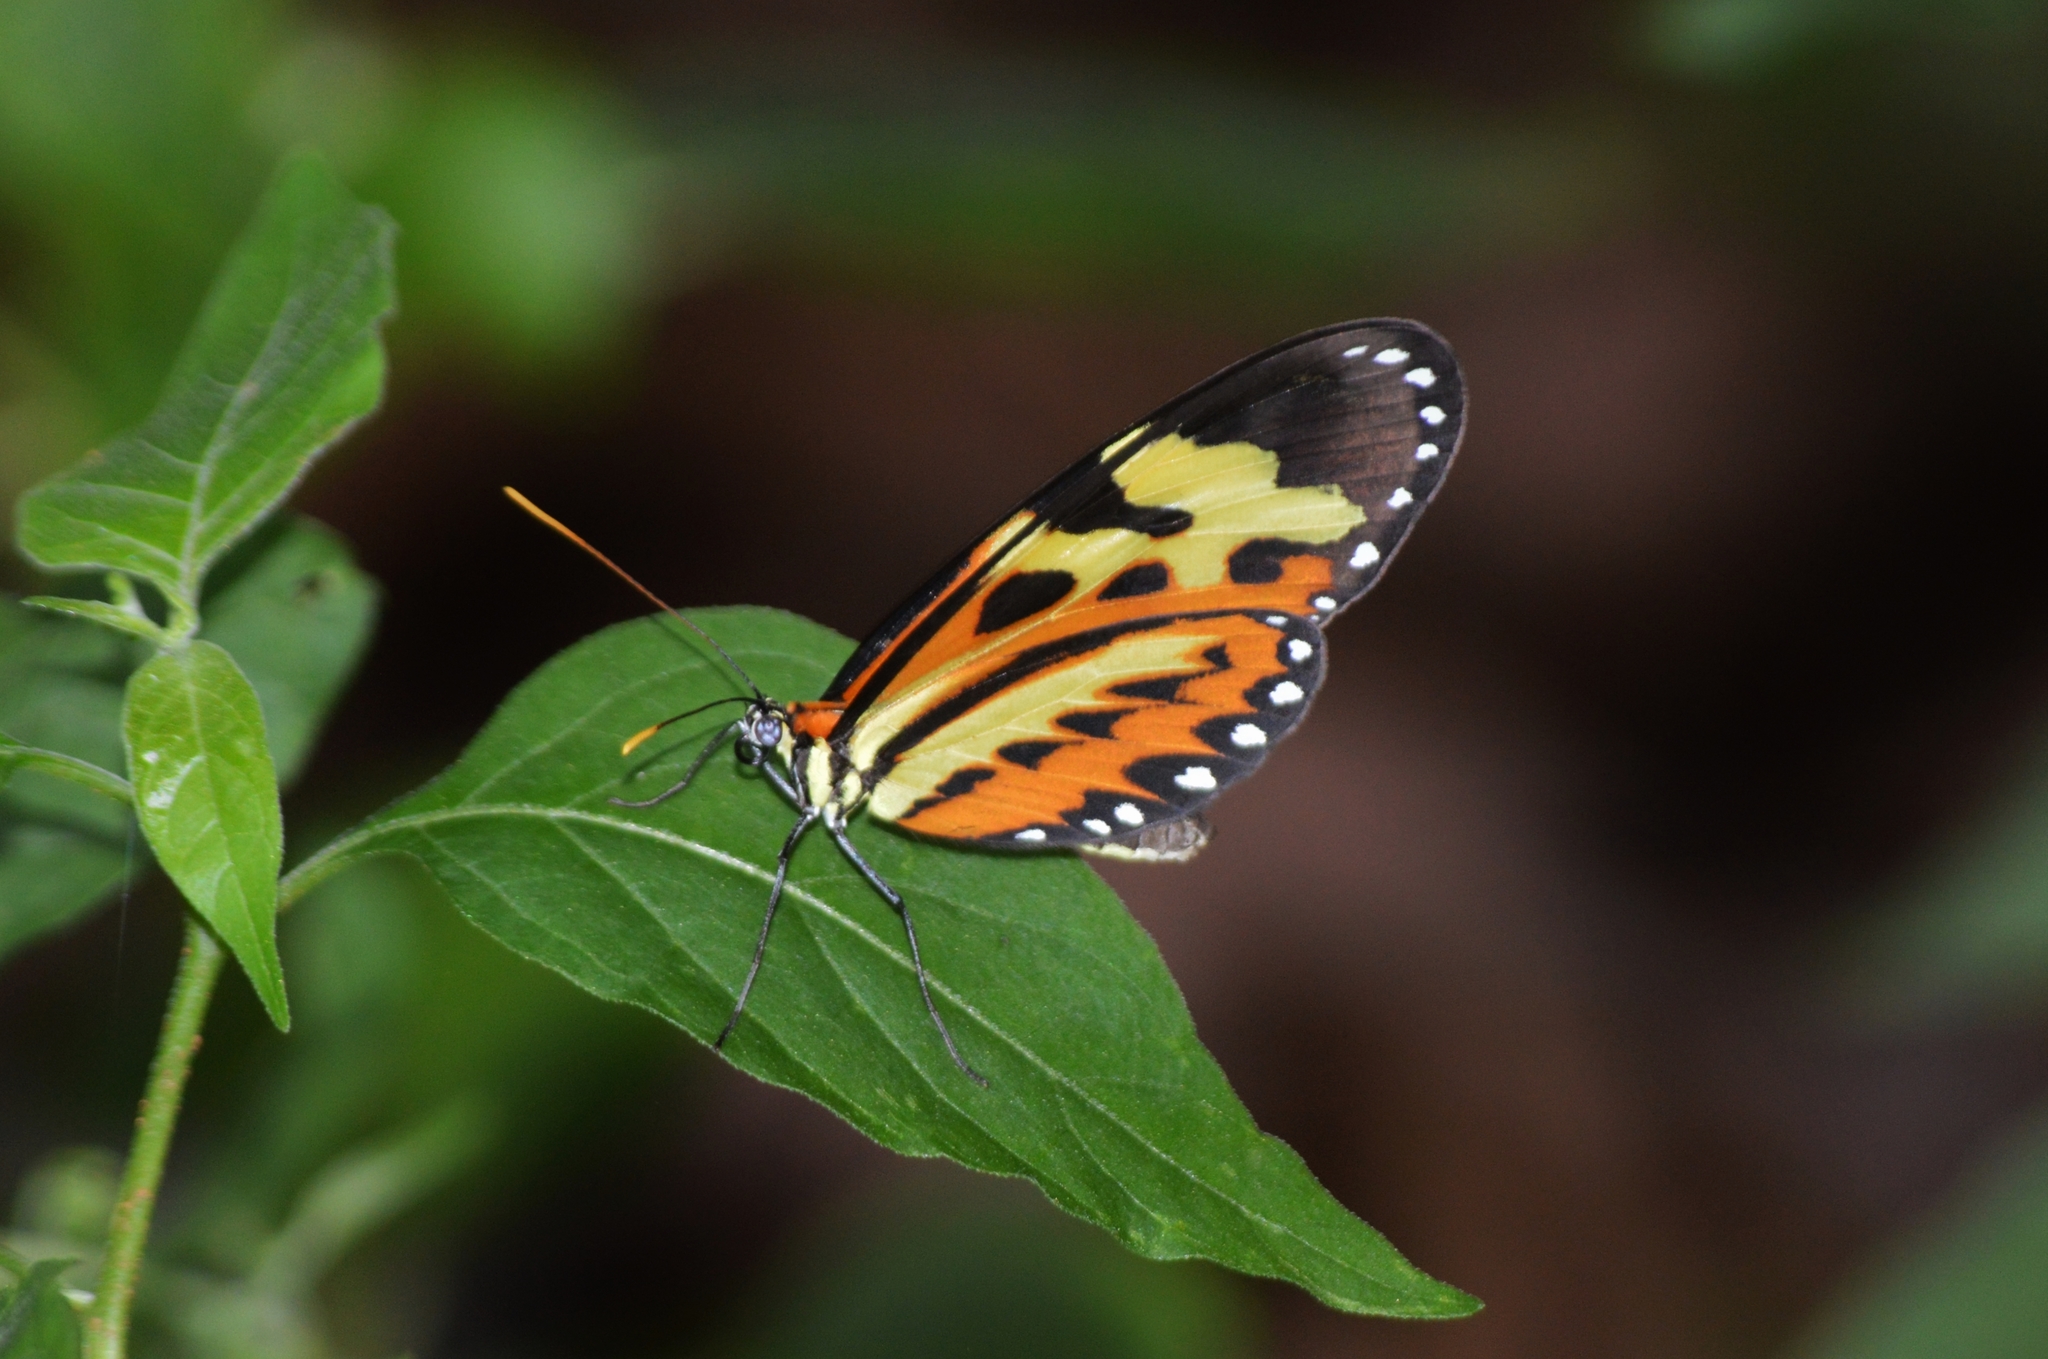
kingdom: Animalia
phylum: Arthropoda
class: Insecta
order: Lepidoptera
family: Nymphalidae
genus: Mechanitis
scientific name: Mechanitis polymnia
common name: Disturbed tigerwing
